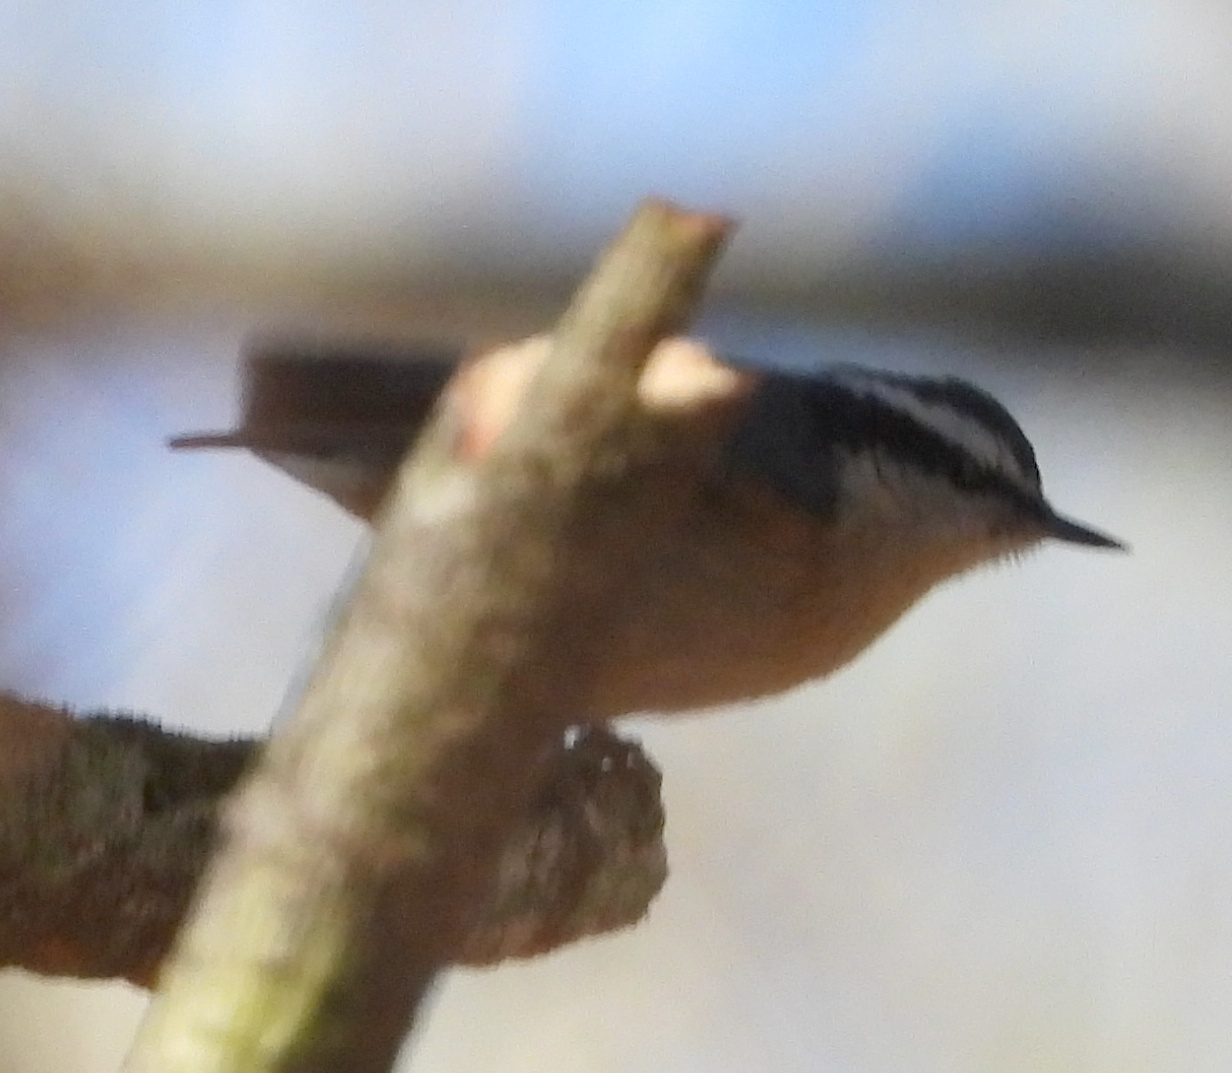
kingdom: Animalia
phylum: Chordata
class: Aves
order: Passeriformes
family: Sittidae
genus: Sitta
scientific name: Sitta canadensis
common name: Red-breasted nuthatch
